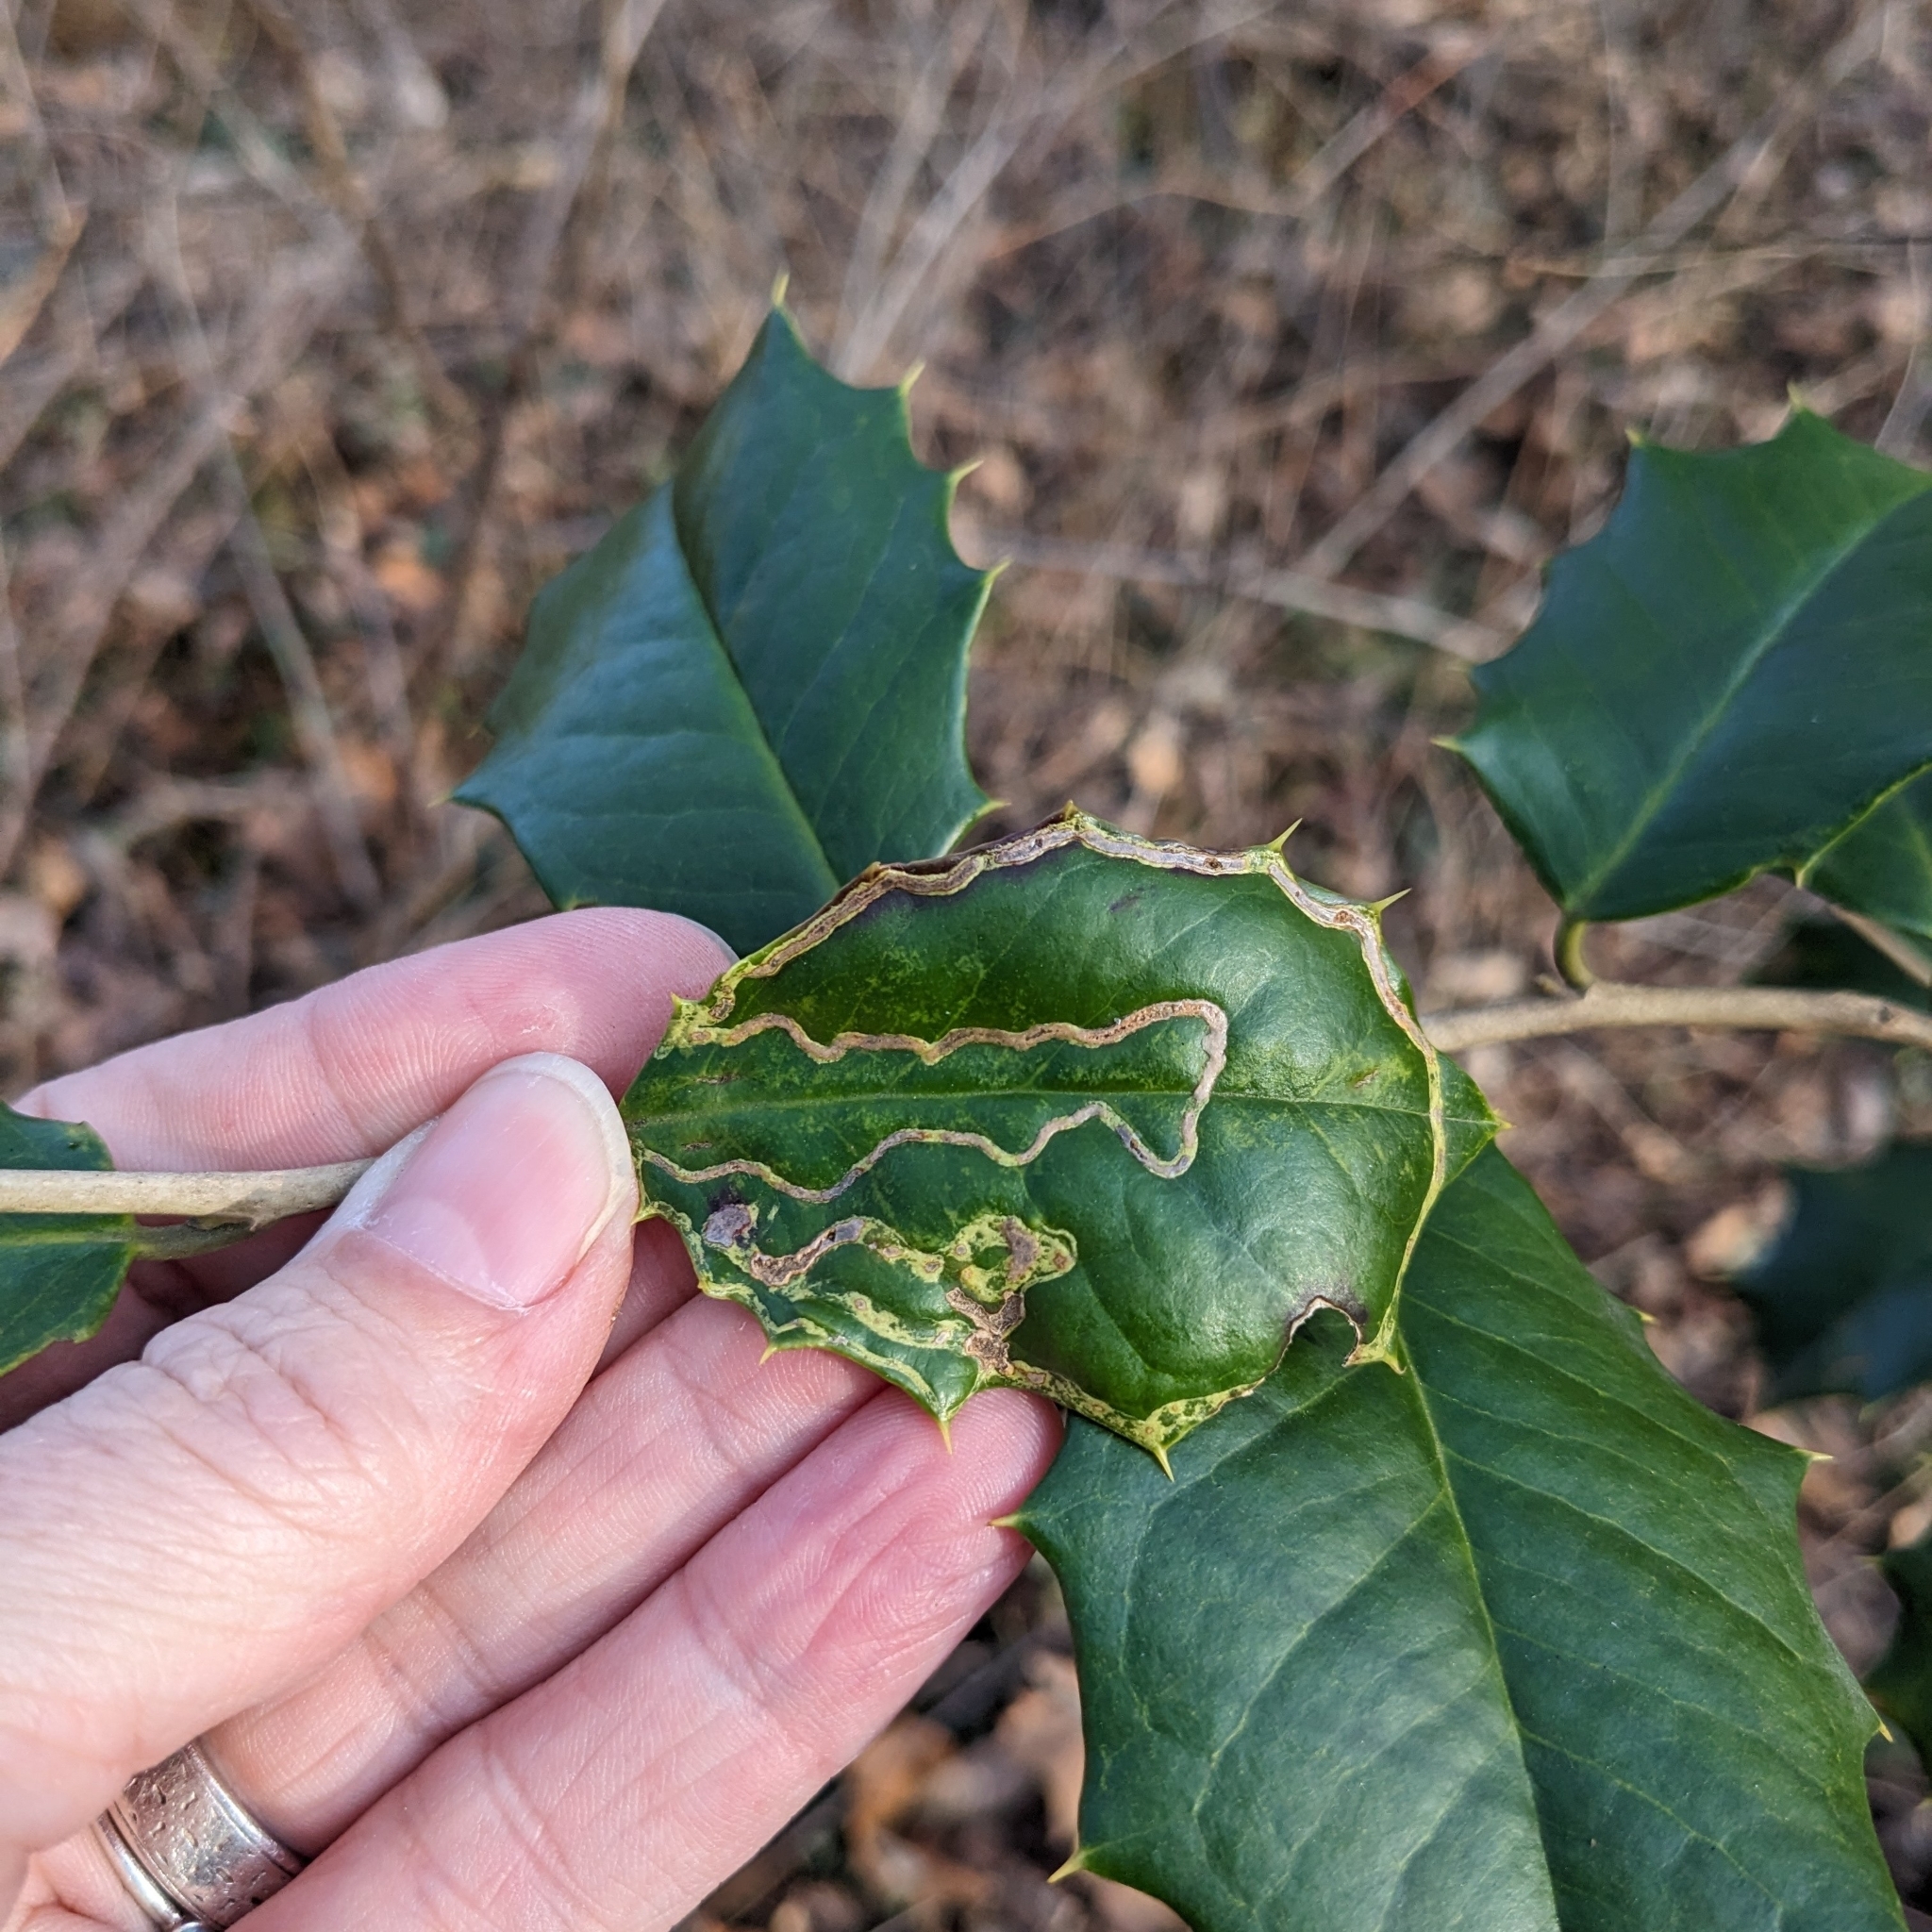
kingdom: Animalia
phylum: Arthropoda
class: Insecta
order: Diptera
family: Agromyzidae
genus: Phytomyza
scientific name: Phytomyza opacae
